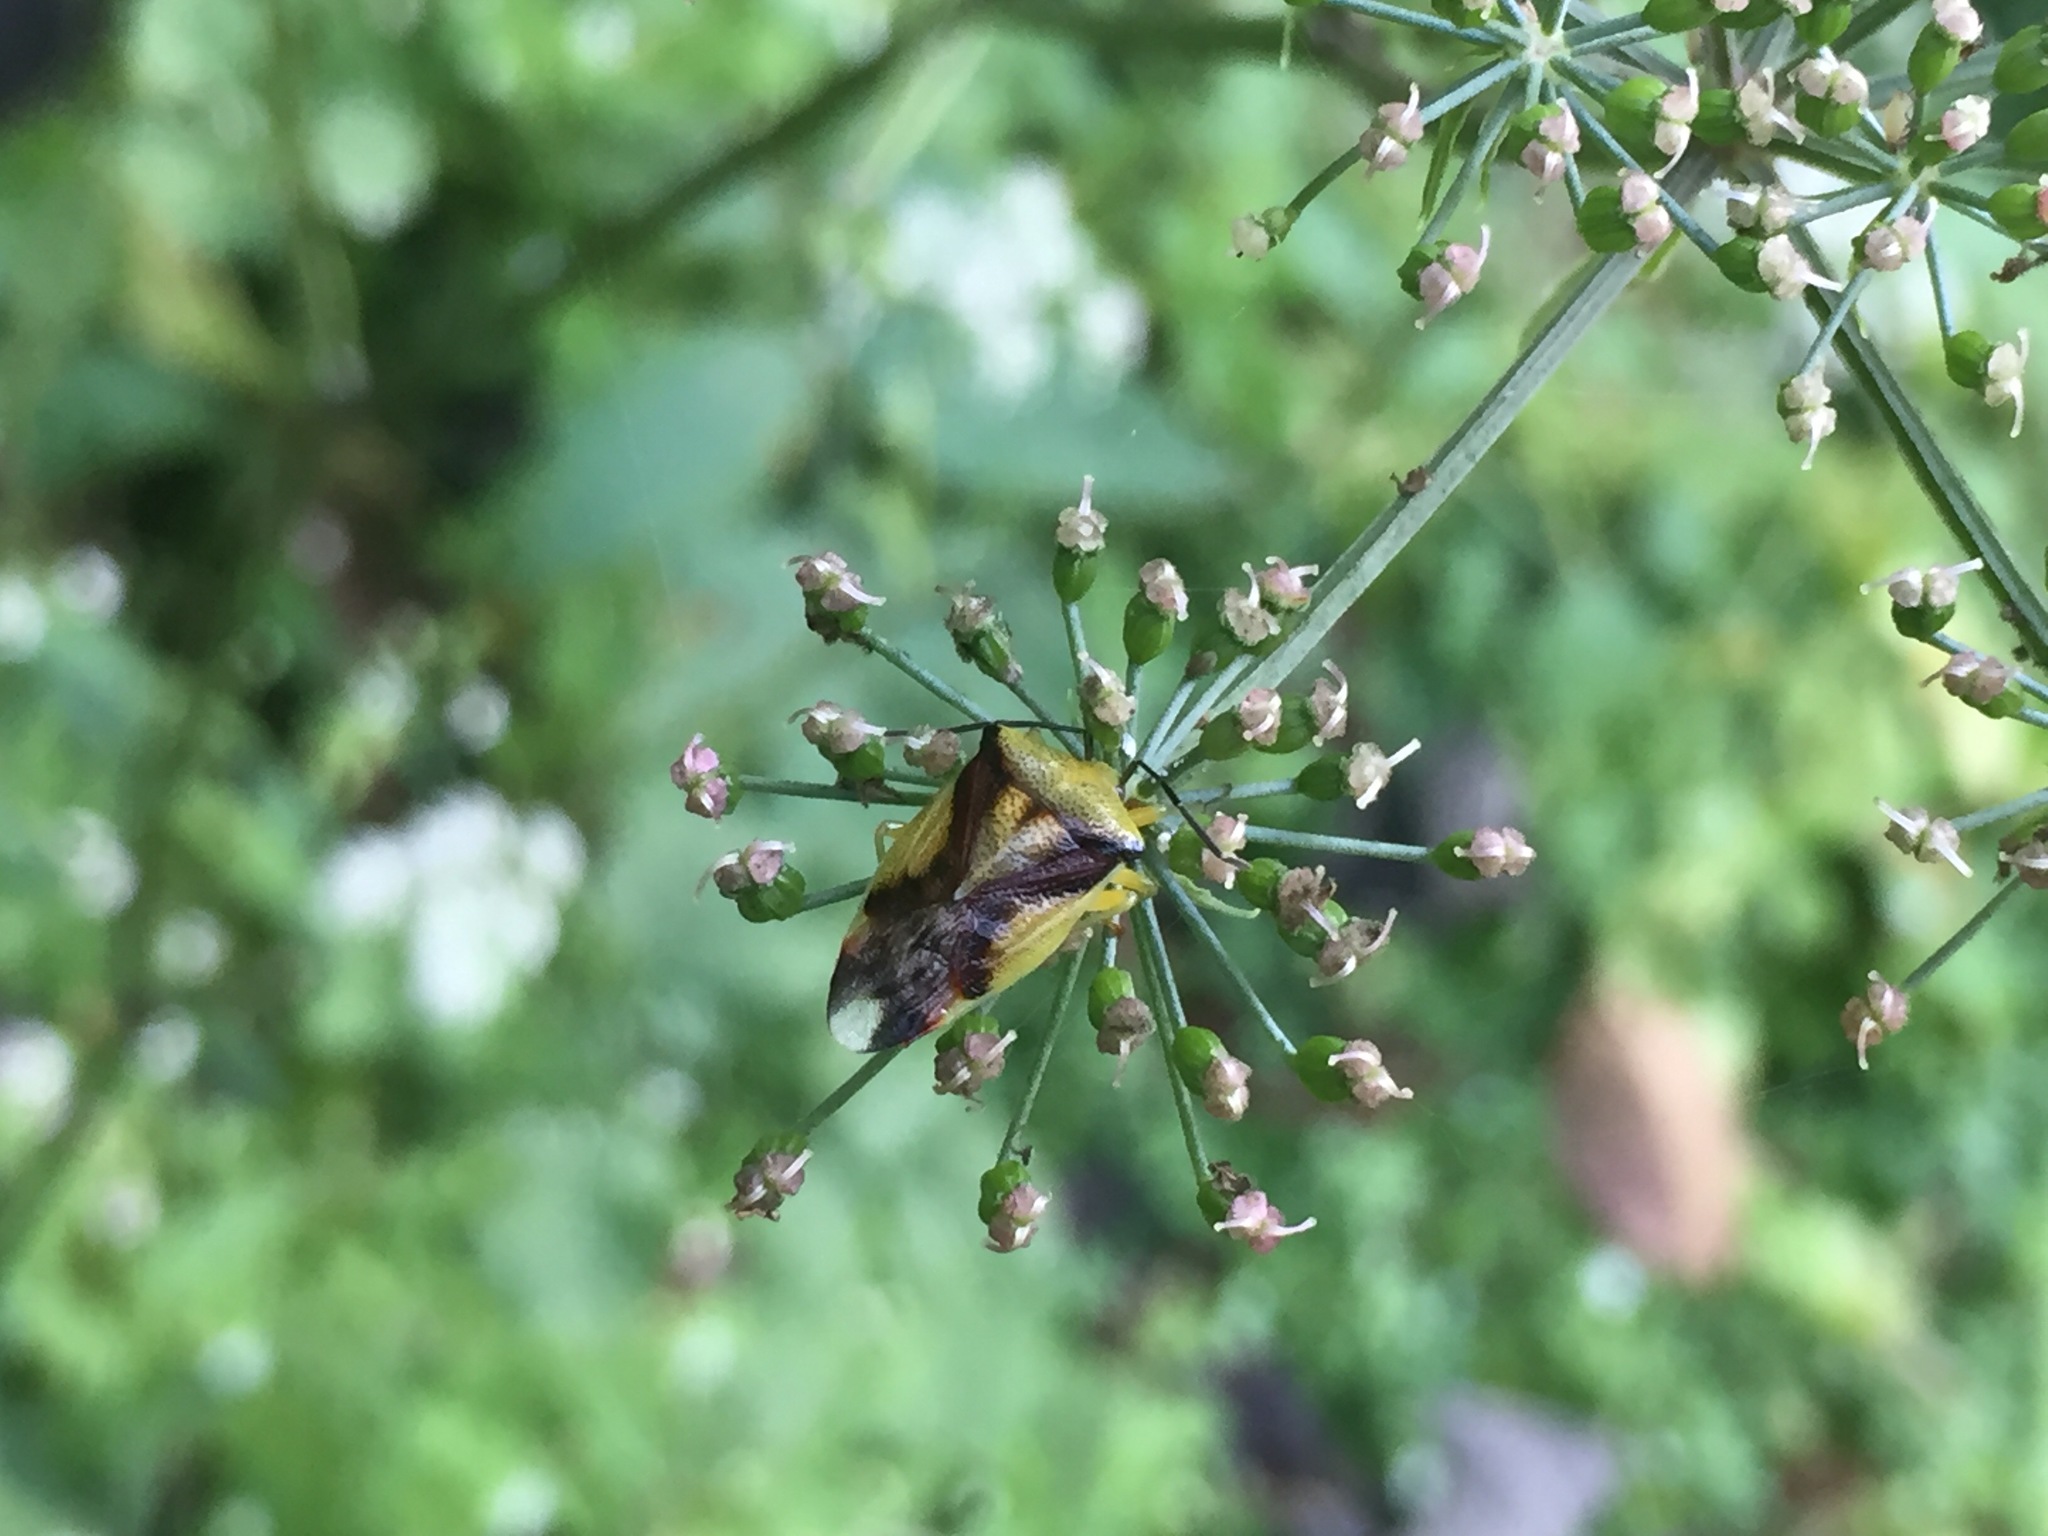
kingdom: Animalia
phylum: Arthropoda
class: Insecta
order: Hemiptera
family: Acanthosomatidae
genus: Elasmostethus
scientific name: Elasmostethus yunnanus
